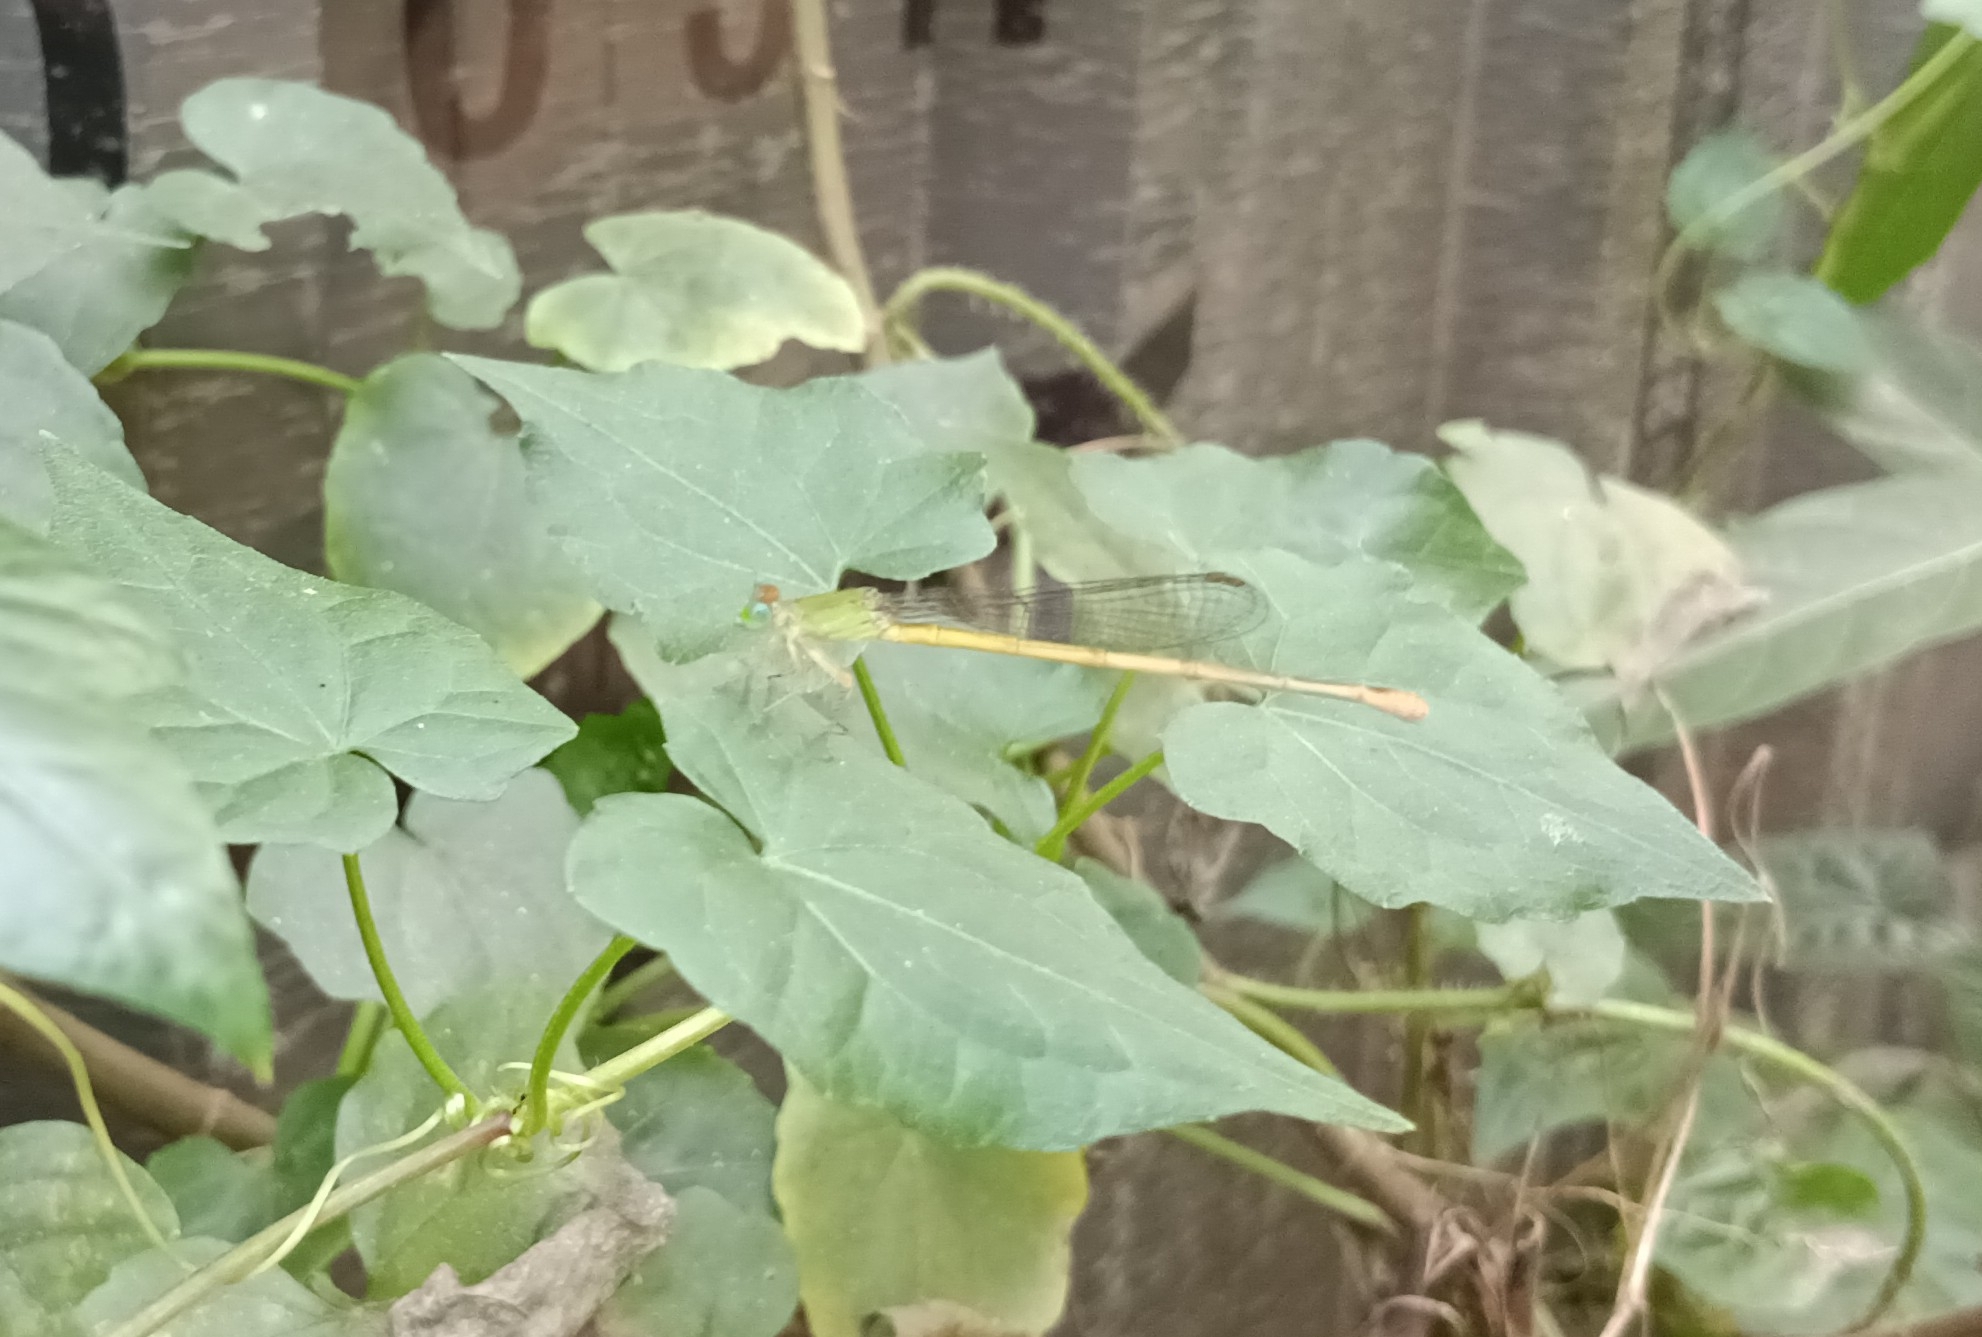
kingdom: Animalia
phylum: Arthropoda
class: Insecta
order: Odonata
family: Coenagrionidae
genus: Ceriagrion
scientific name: Ceriagrion coromandelianum
